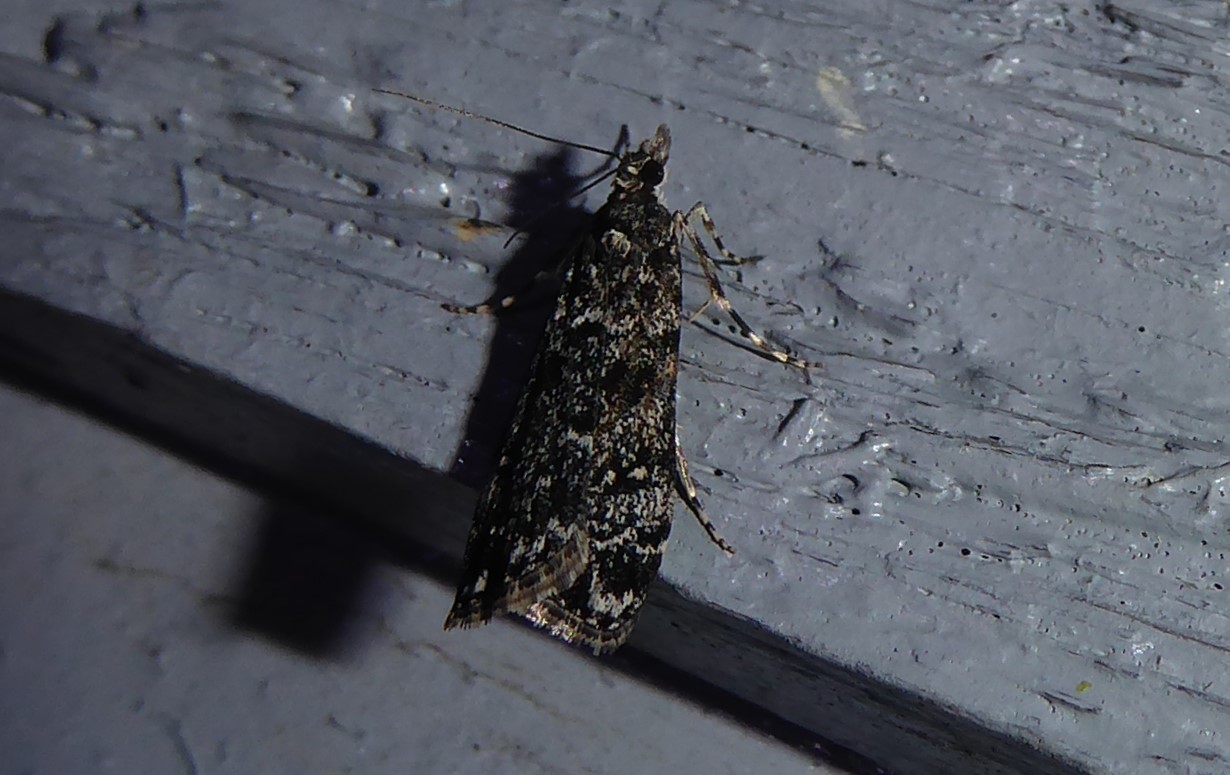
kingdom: Animalia
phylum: Arthropoda
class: Insecta
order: Lepidoptera
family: Crambidae
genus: Eudonia
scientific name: Eudonia philerga
